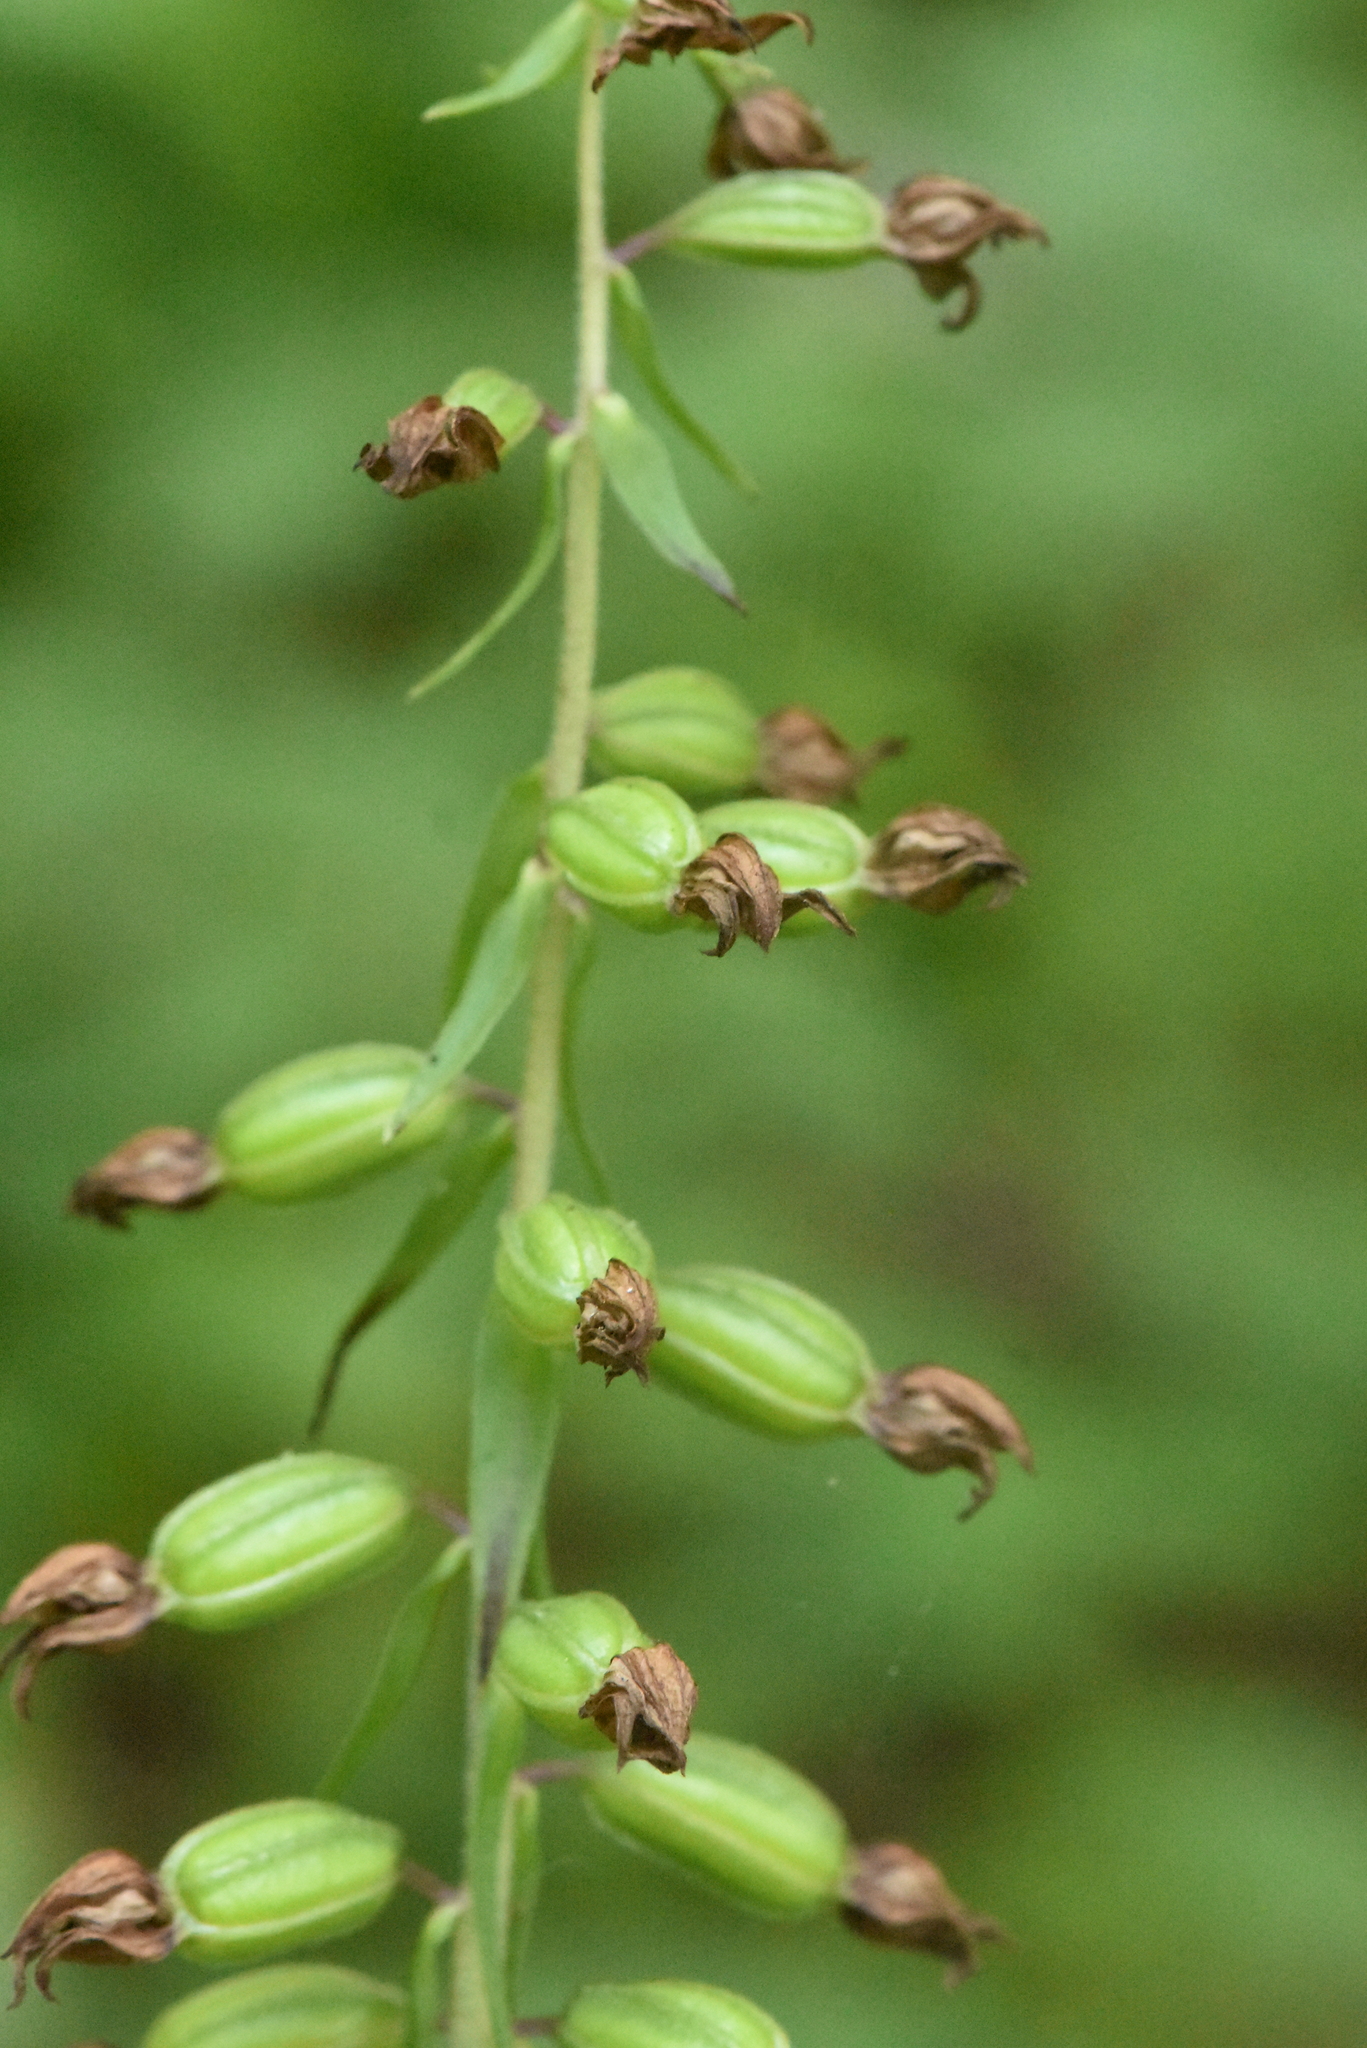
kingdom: Plantae
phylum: Tracheophyta
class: Liliopsida
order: Asparagales
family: Orchidaceae
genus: Epipactis
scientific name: Epipactis helleborine
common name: Broad-leaved helleborine
